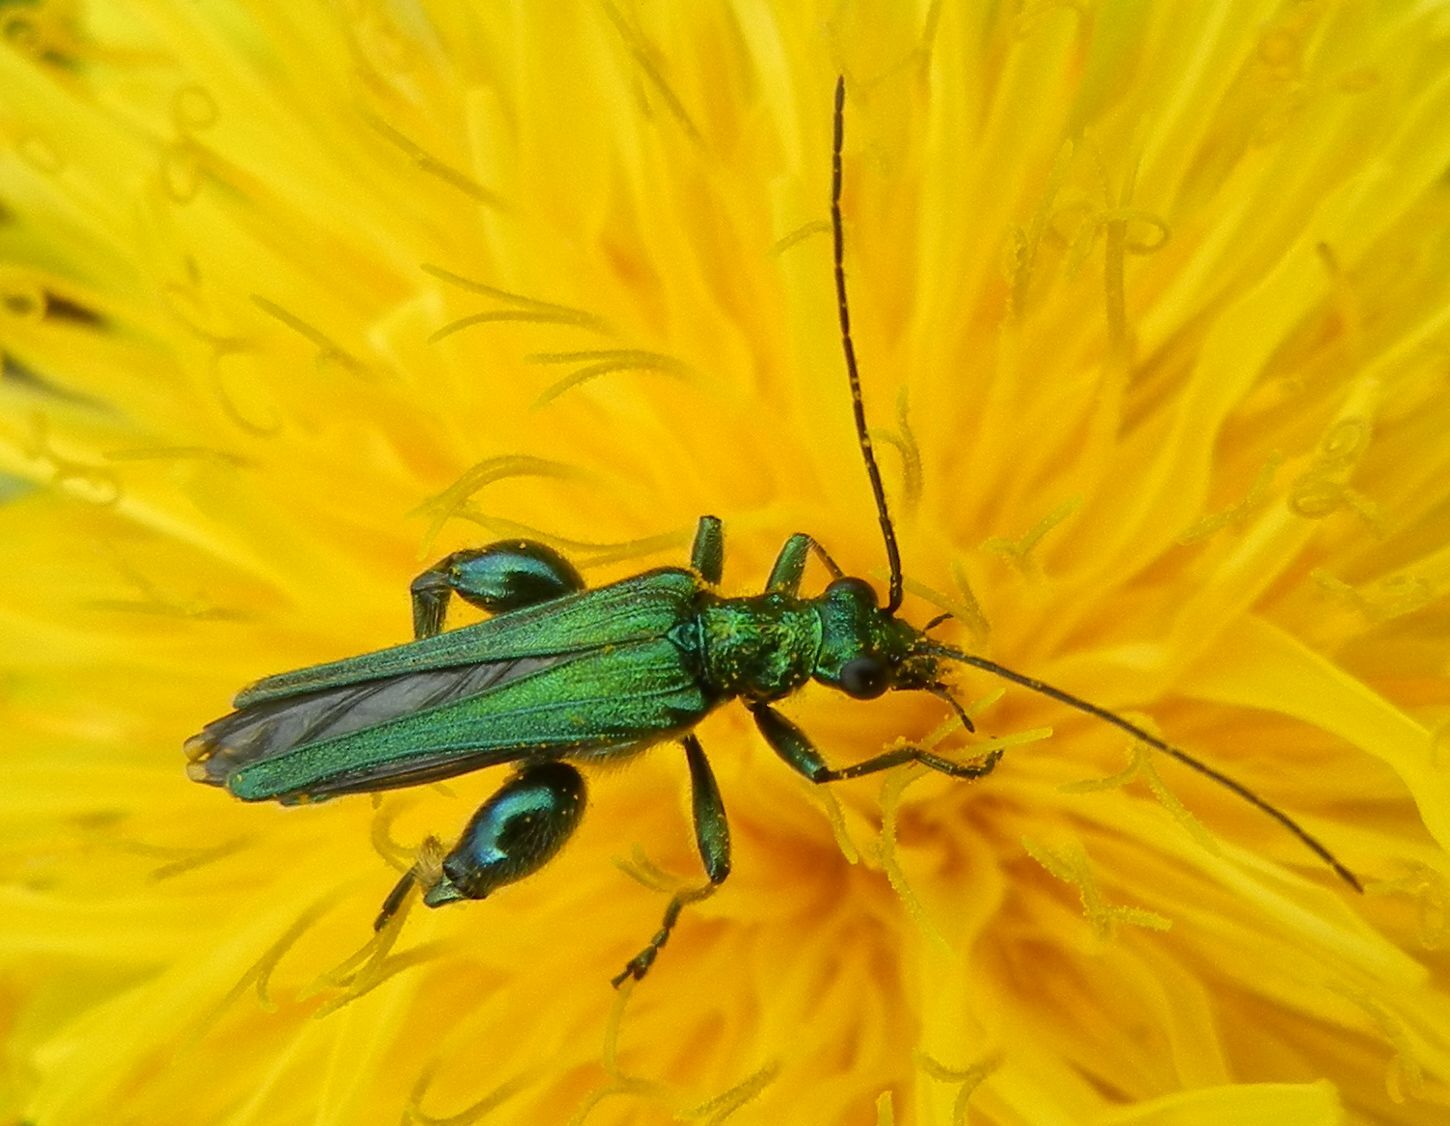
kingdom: Animalia
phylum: Arthropoda
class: Insecta
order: Coleoptera
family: Oedemeridae
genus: Oedemera
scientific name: Oedemera nobilis
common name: Swollen-thighed beetle
